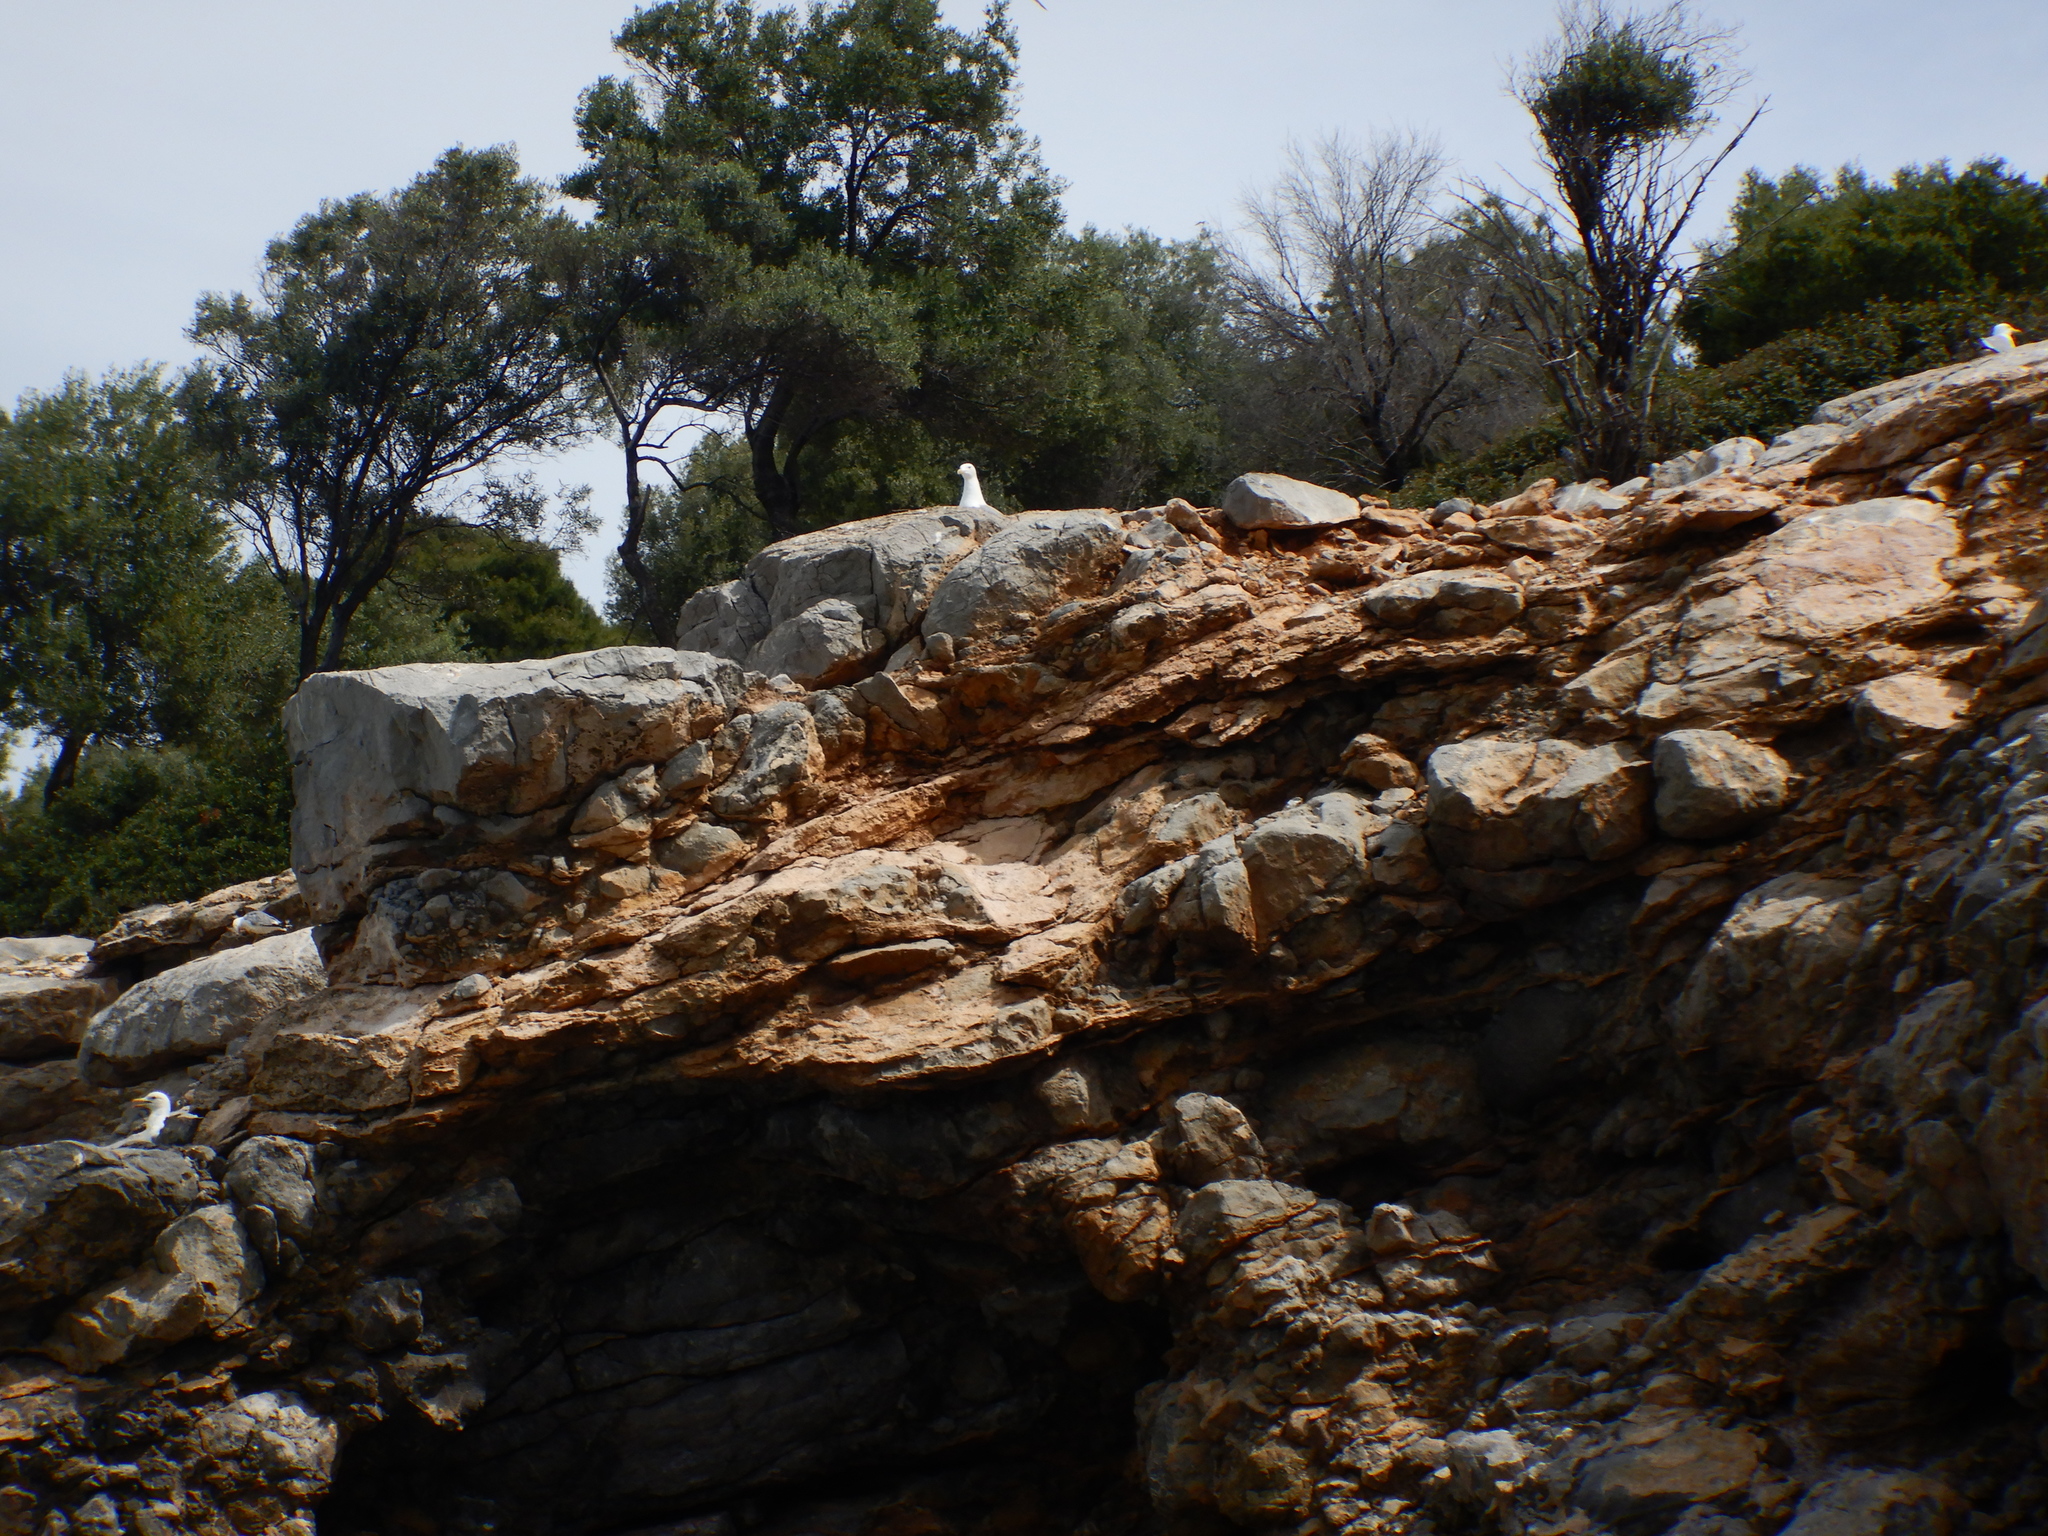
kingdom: Animalia
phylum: Chordata
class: Aves
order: Charadriiformes
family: Laridae
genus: Larus
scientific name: Larus michahellis
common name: Yellow-legged gull
